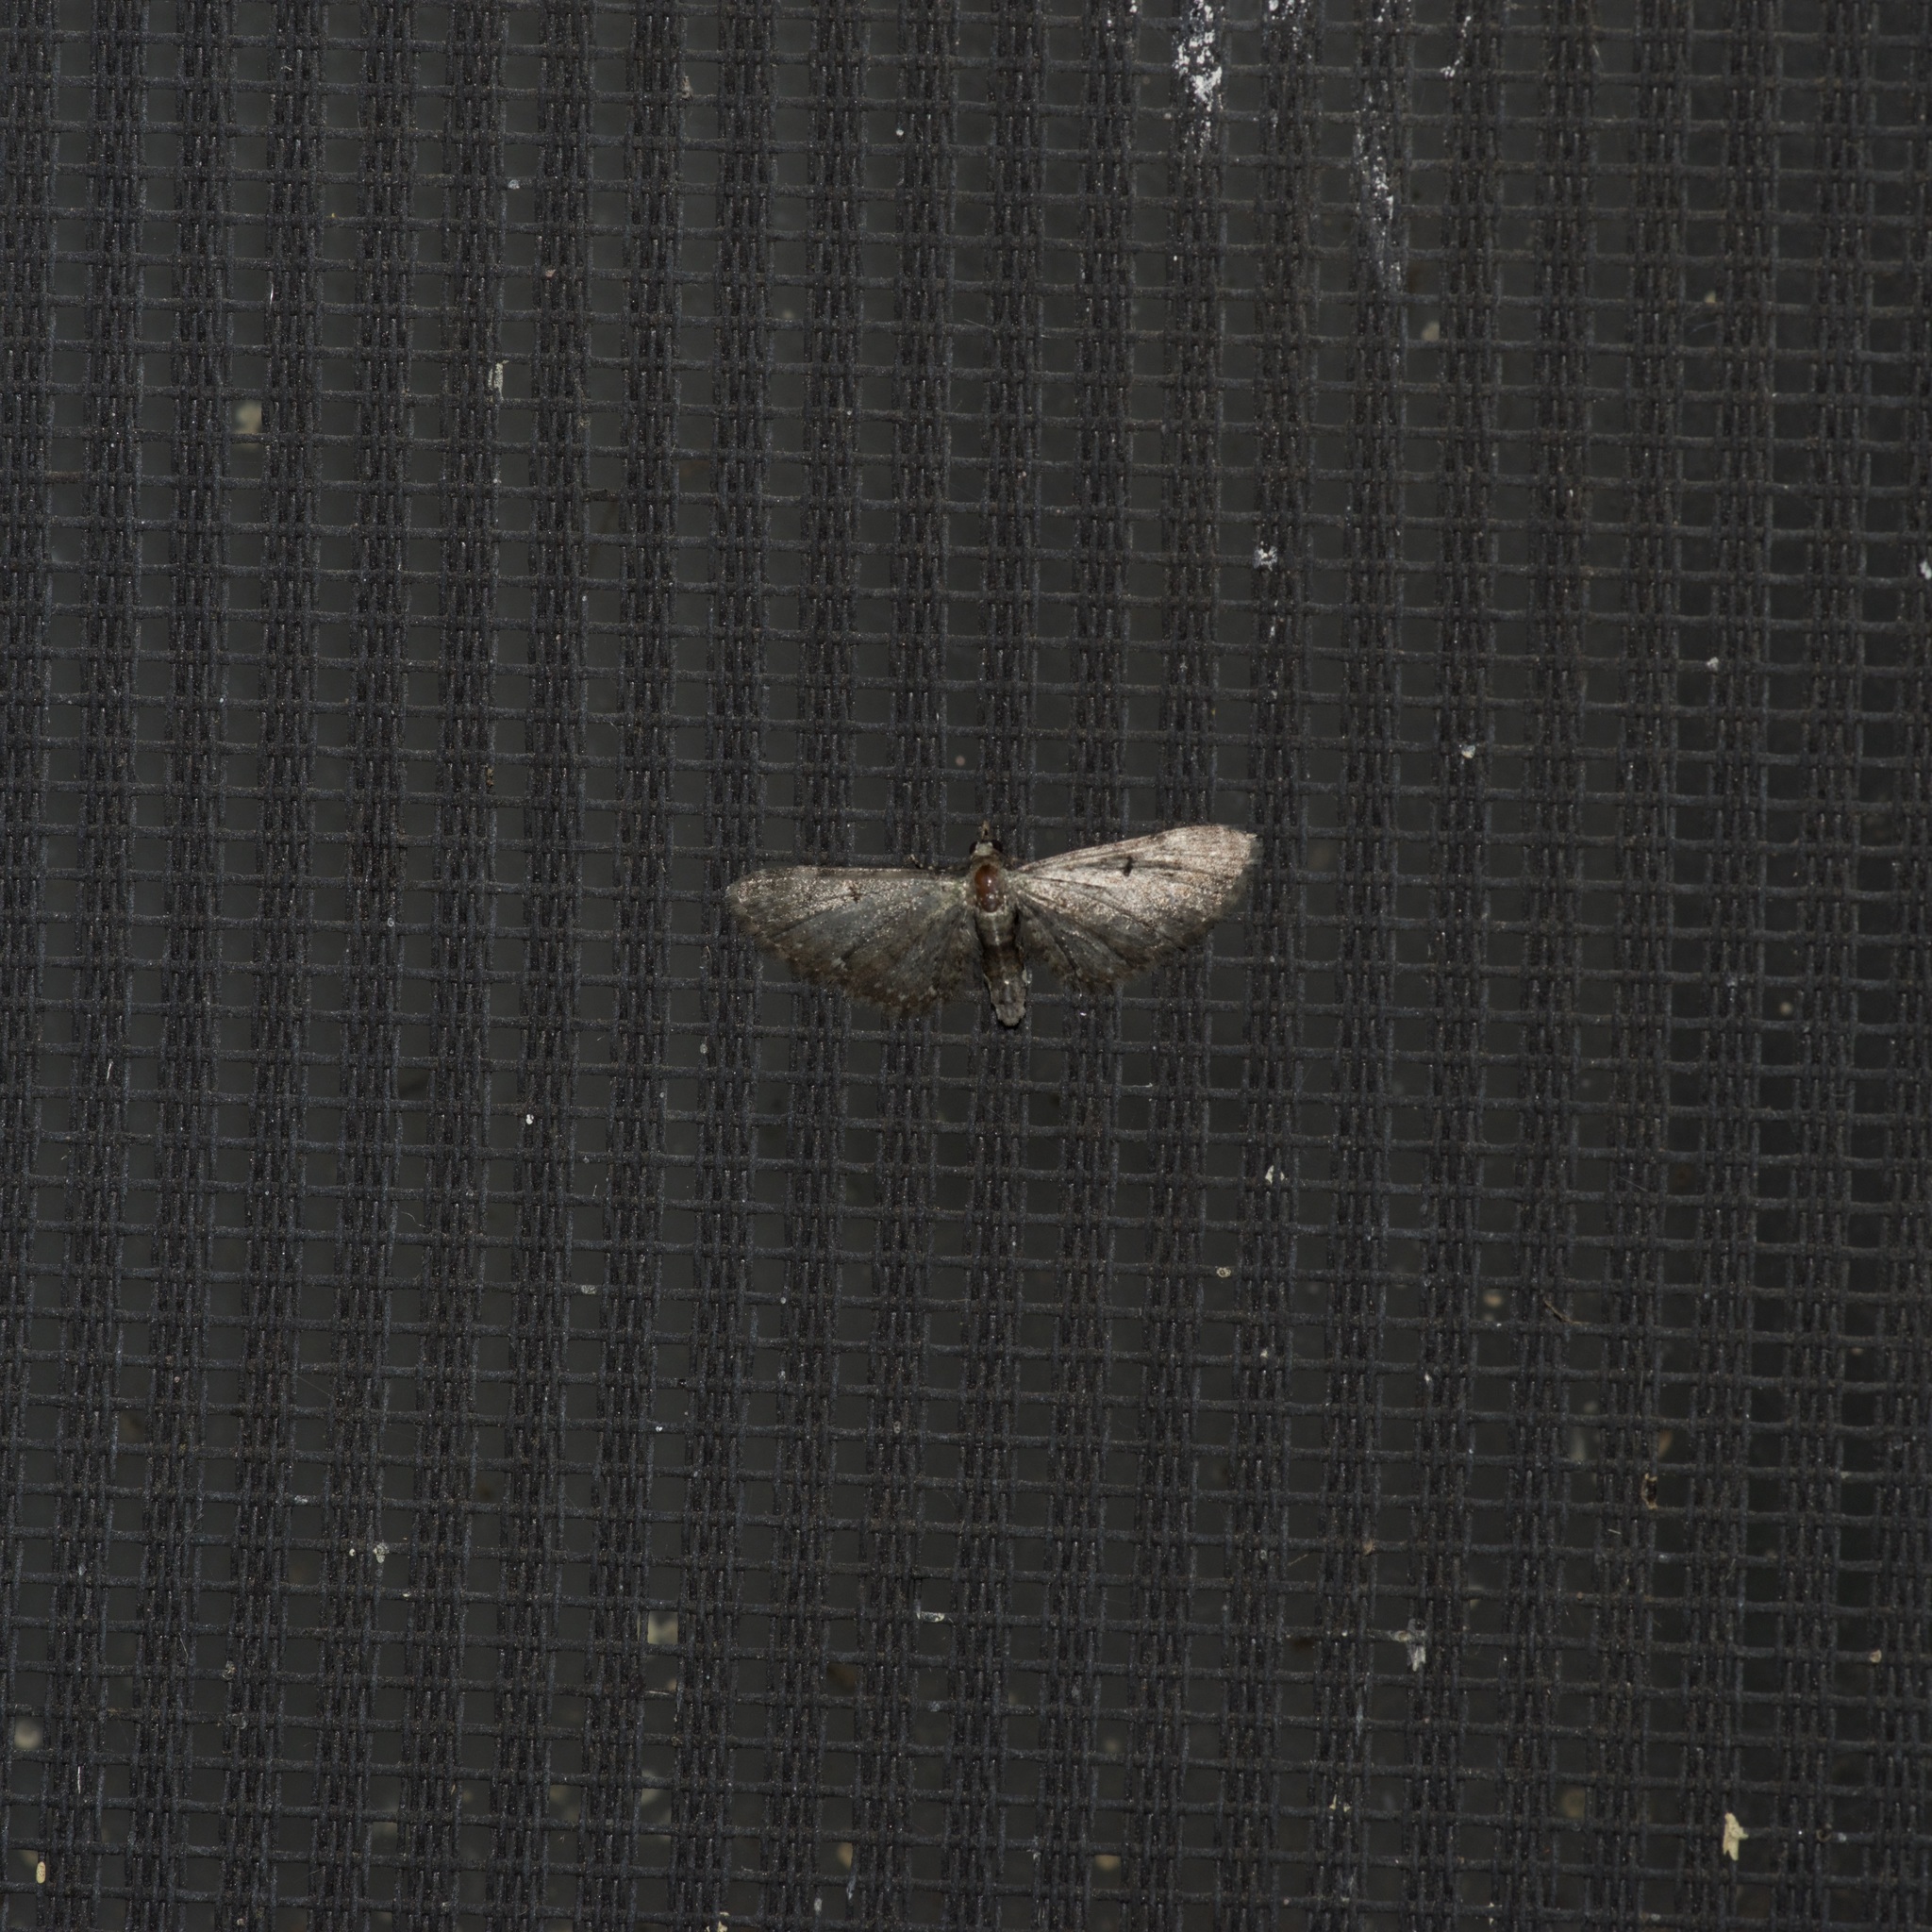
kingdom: Animalia
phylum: Arthropoda
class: Insecta
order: Lepidoptera
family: Geometridae
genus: Eupithecia
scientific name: Eupithecia miserulata
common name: Common eupithecia
